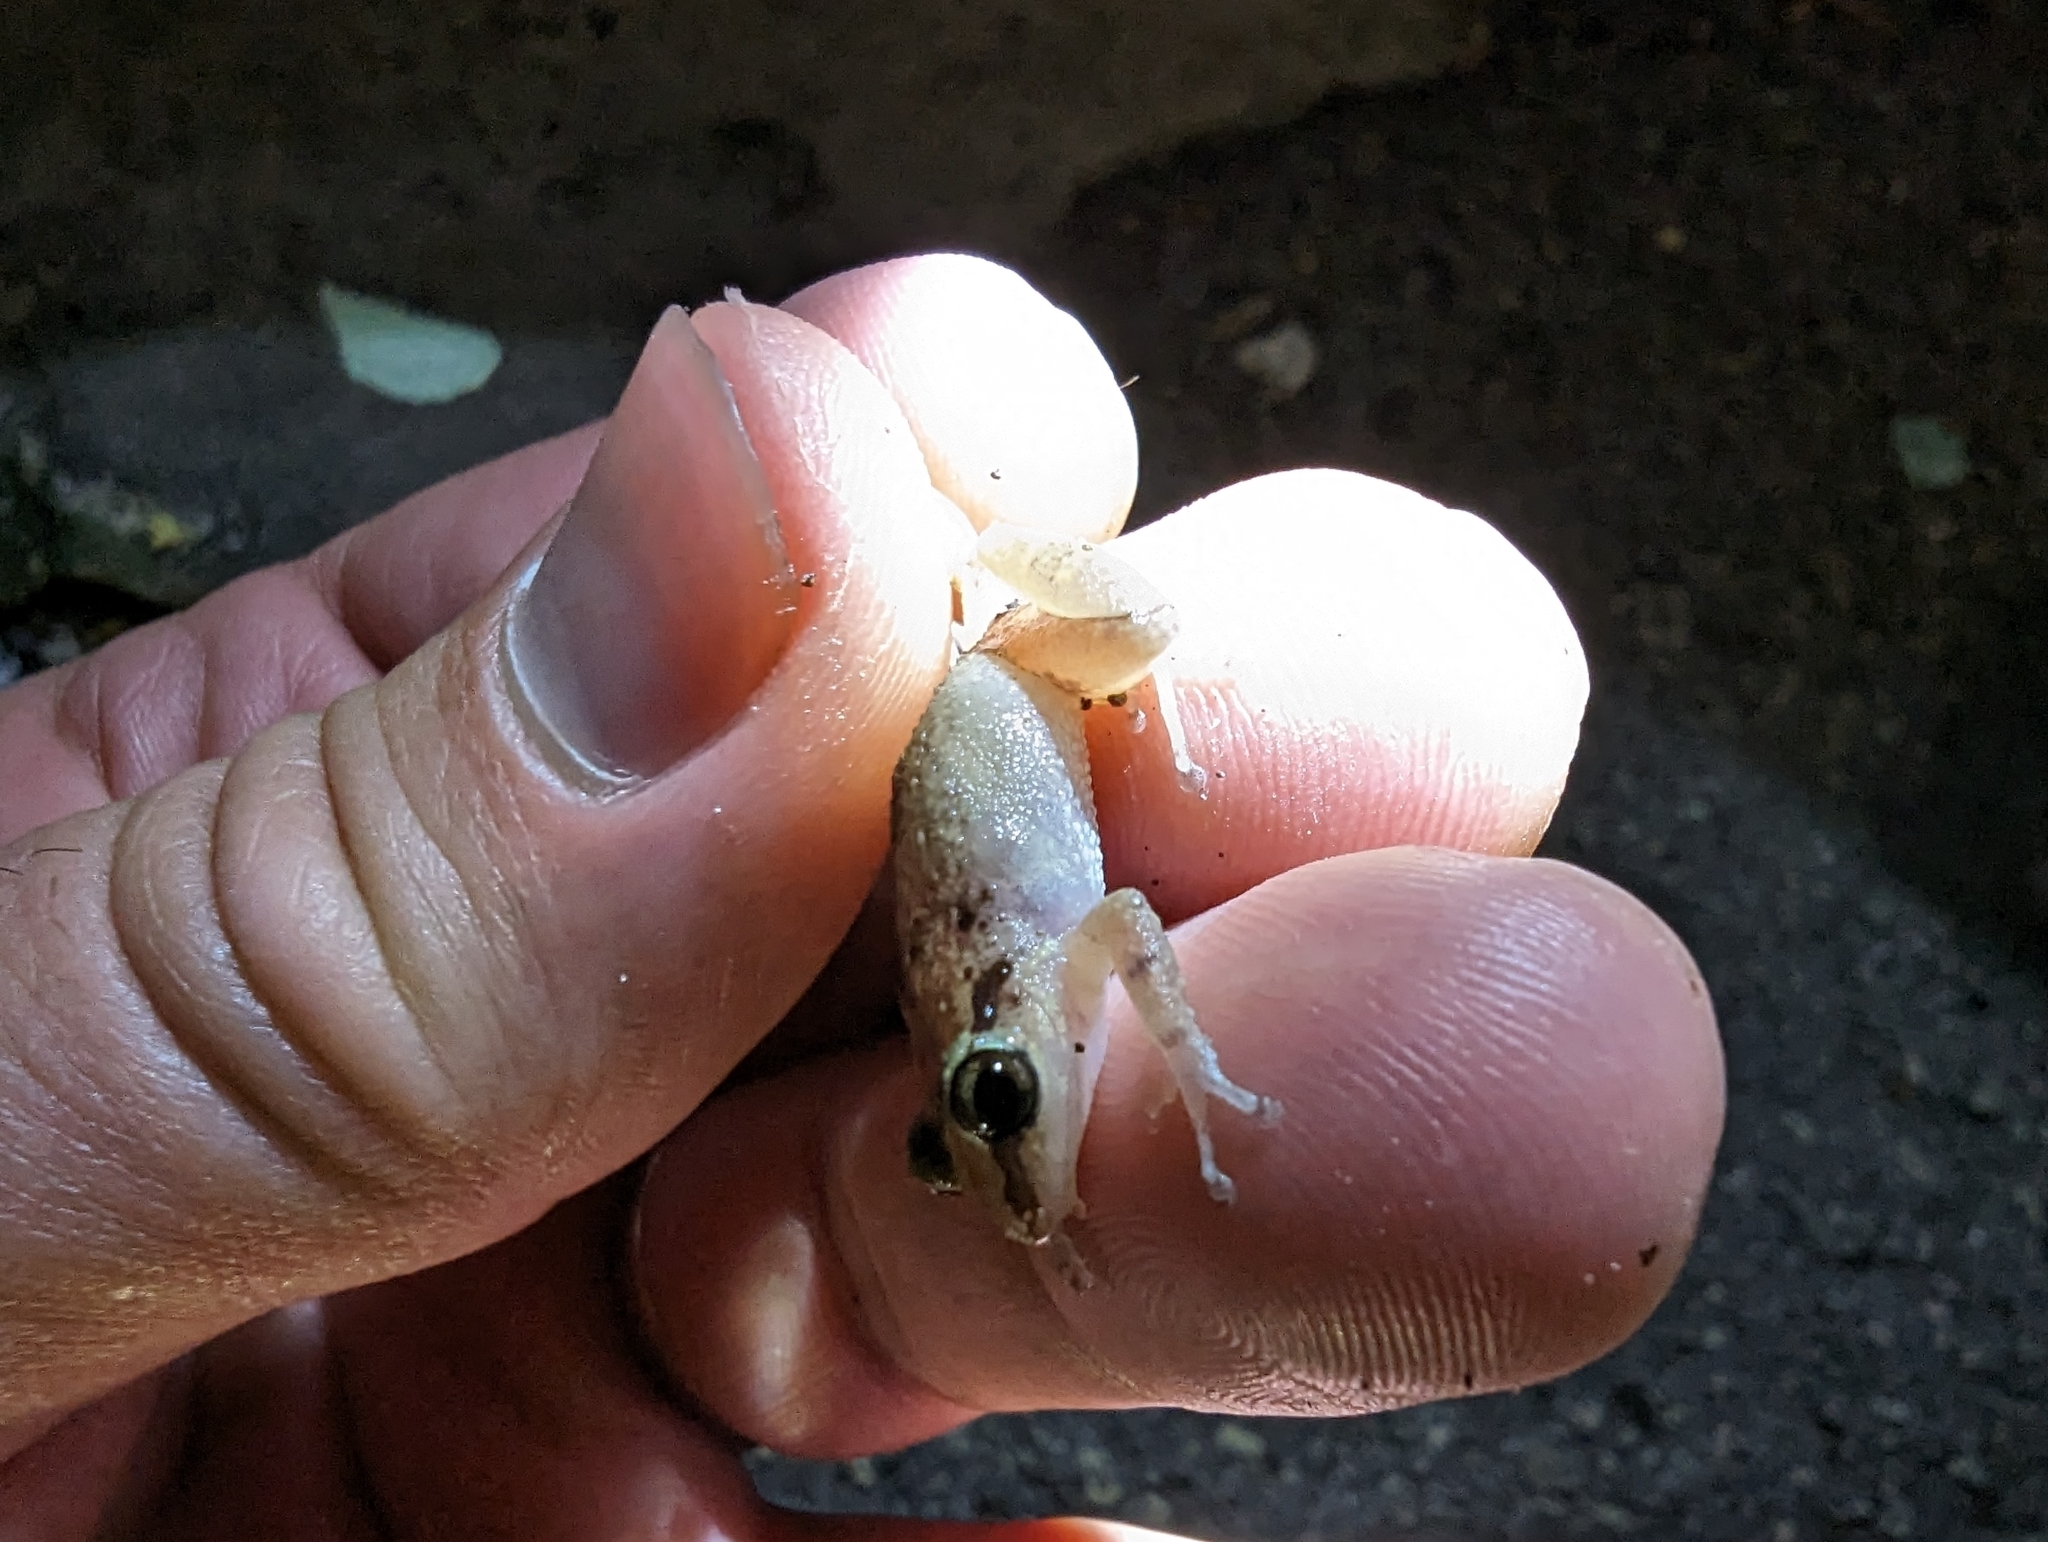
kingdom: Animalia
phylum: Chordata
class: Amphibia
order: Anura
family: Eleutherodactylidae
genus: Eleutherodactylus
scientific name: Eleutherodactylus johnstonei
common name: Johnstone's robber frog
